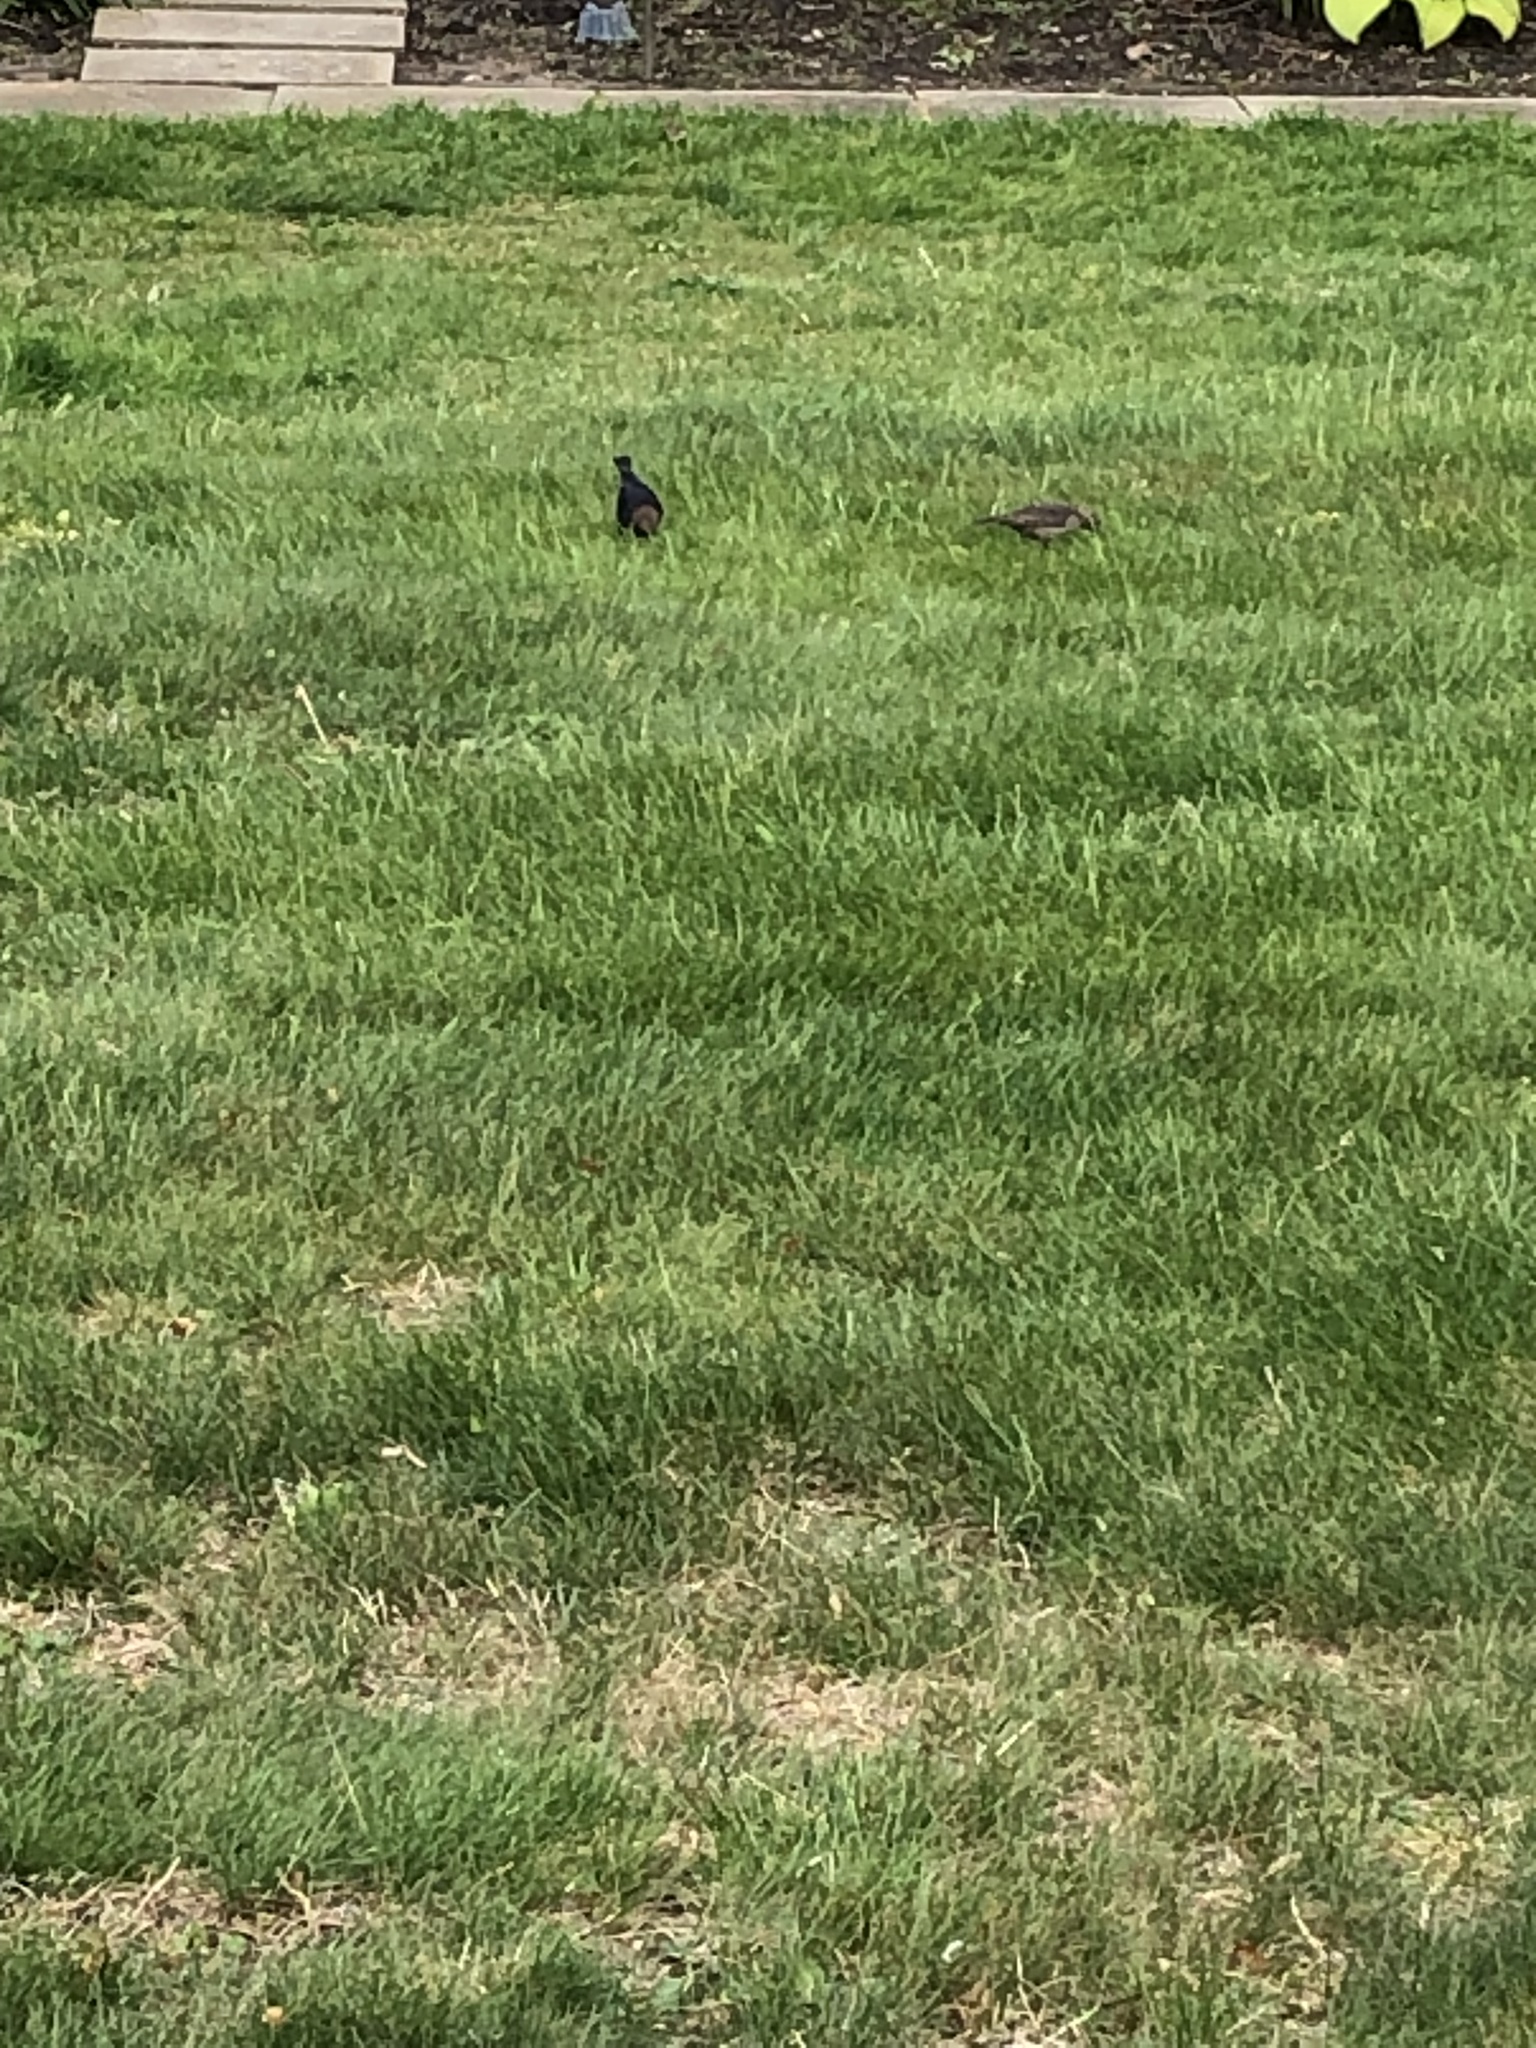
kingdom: Animalia
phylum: Chordata
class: Aves
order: Passeriformes
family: Icteridae
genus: Molothrus
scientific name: Molothrus ater
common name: Brown-headed cowbird
